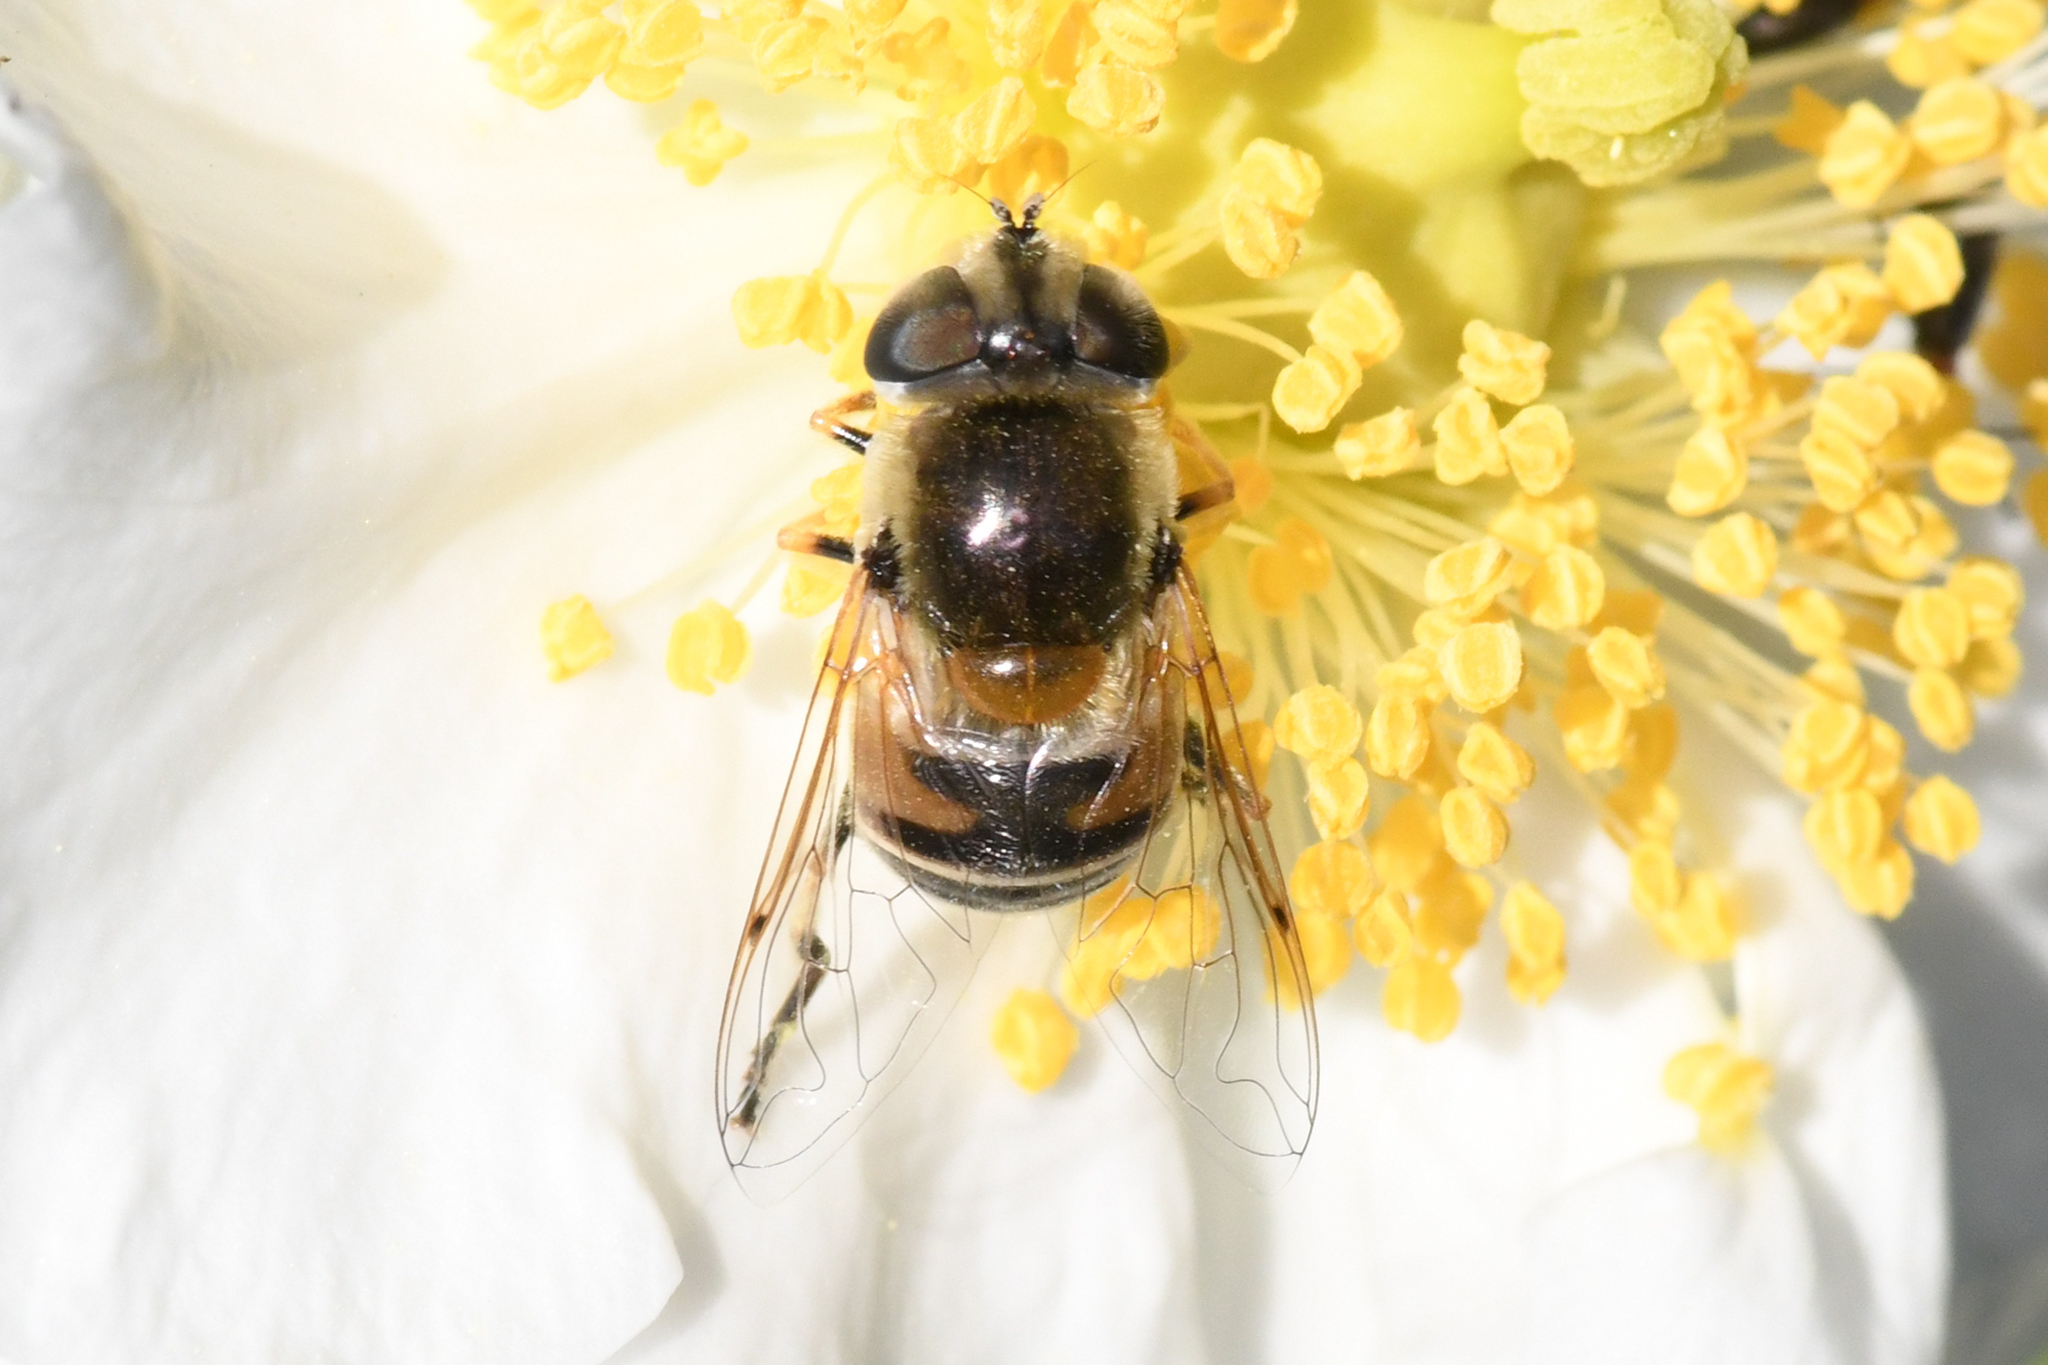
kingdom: Animalia
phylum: Arthropoda
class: Insecta
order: Diptera
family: Syrphidae
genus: Eristalis
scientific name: Eristalis stipator
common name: Yellow-shouldered drone fly
